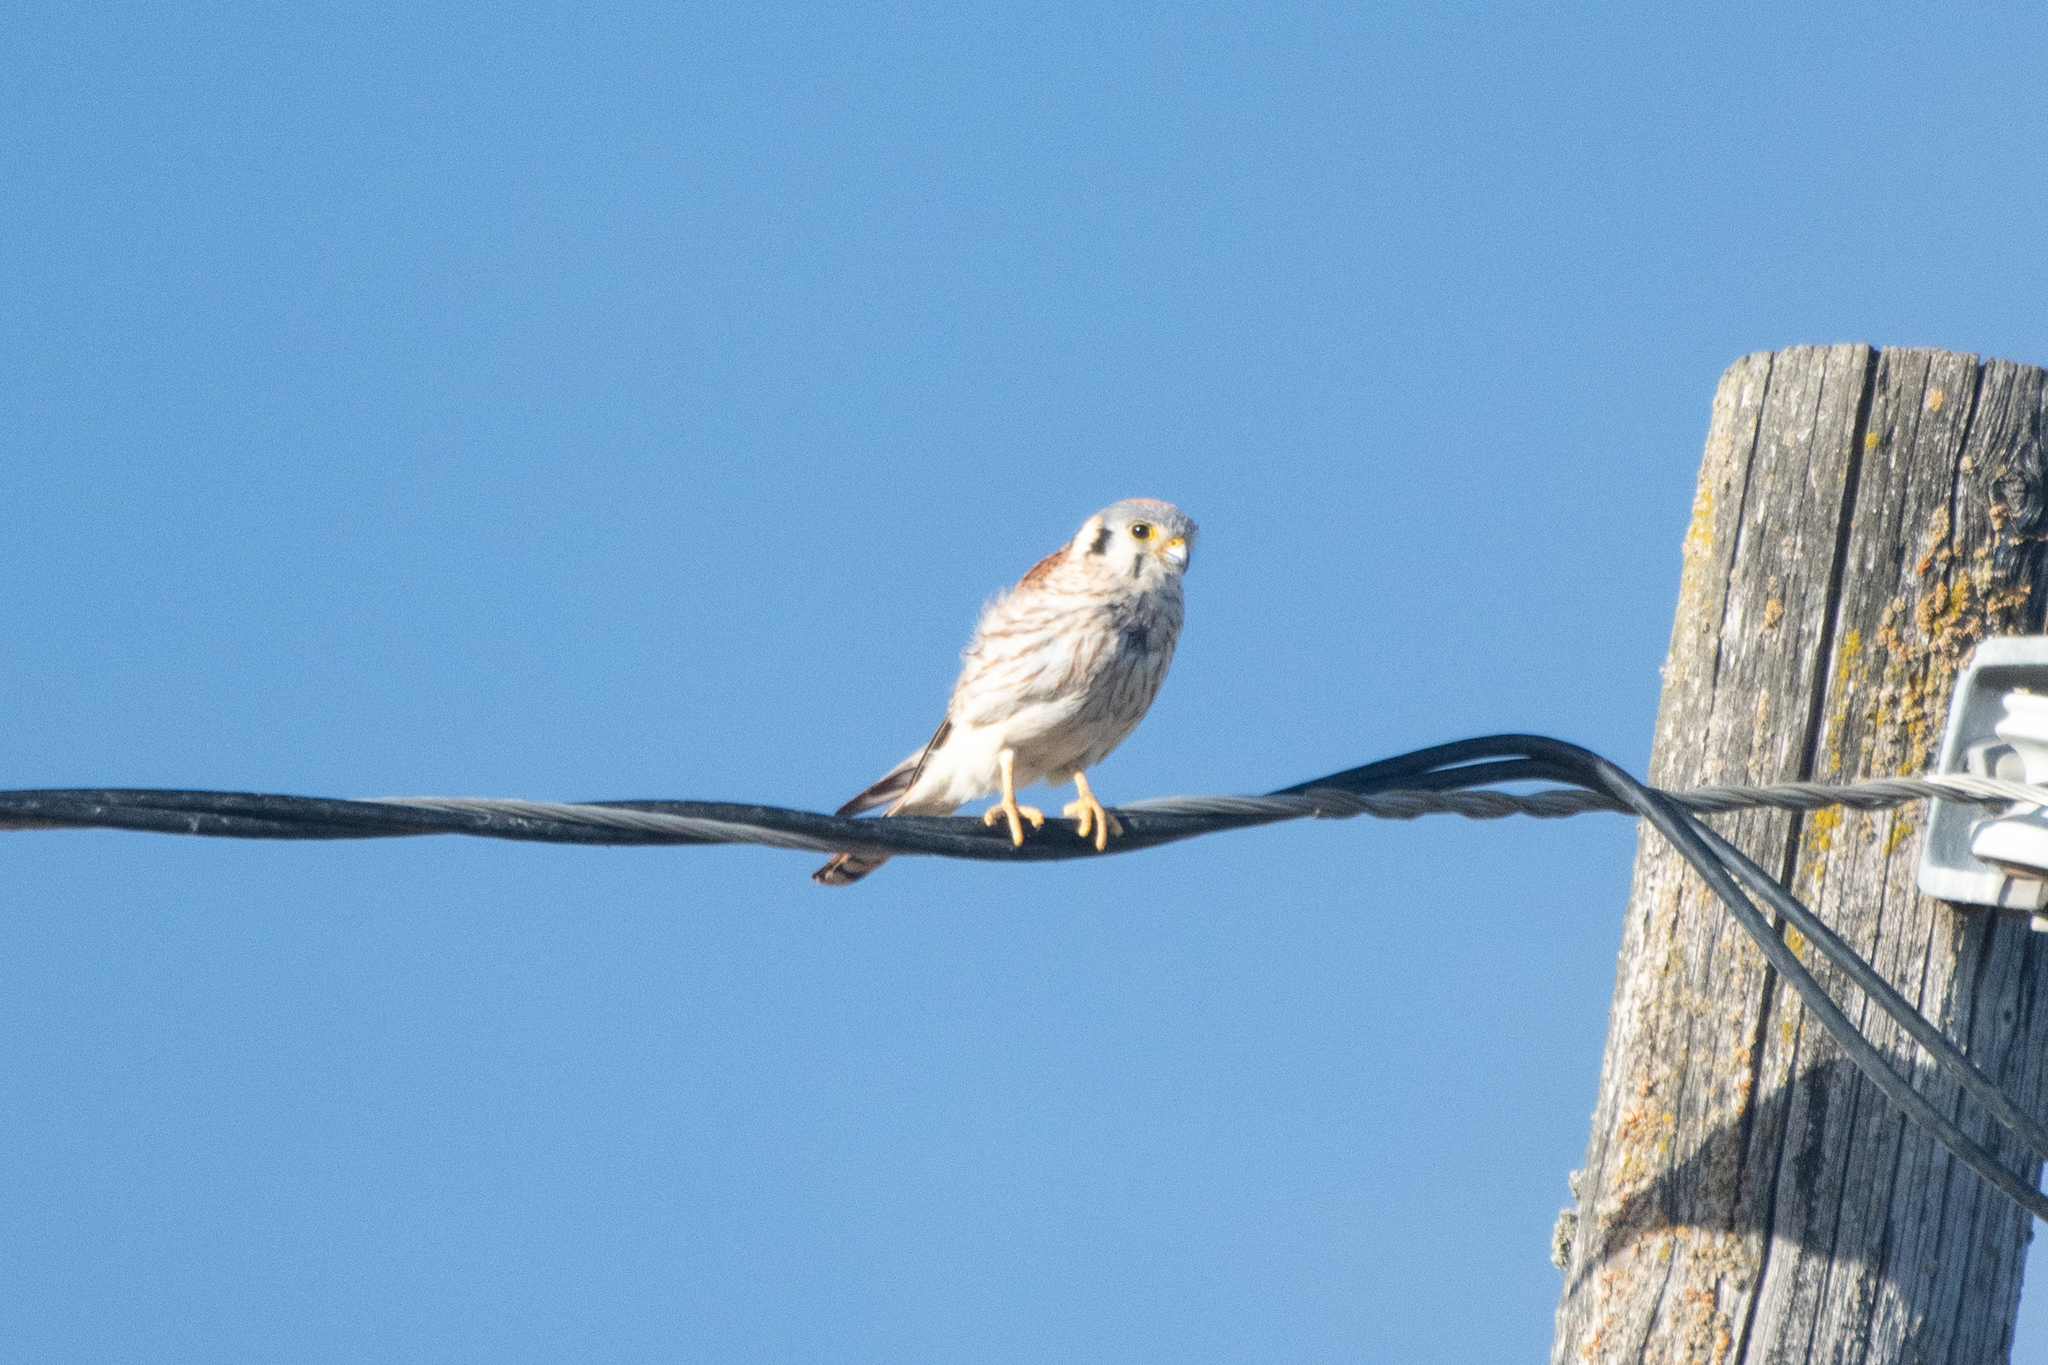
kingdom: Animalia
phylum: Chordata
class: Aves
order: Falconiformes
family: Falconidae
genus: Falco
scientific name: Falco sparverius
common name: American kestrel
